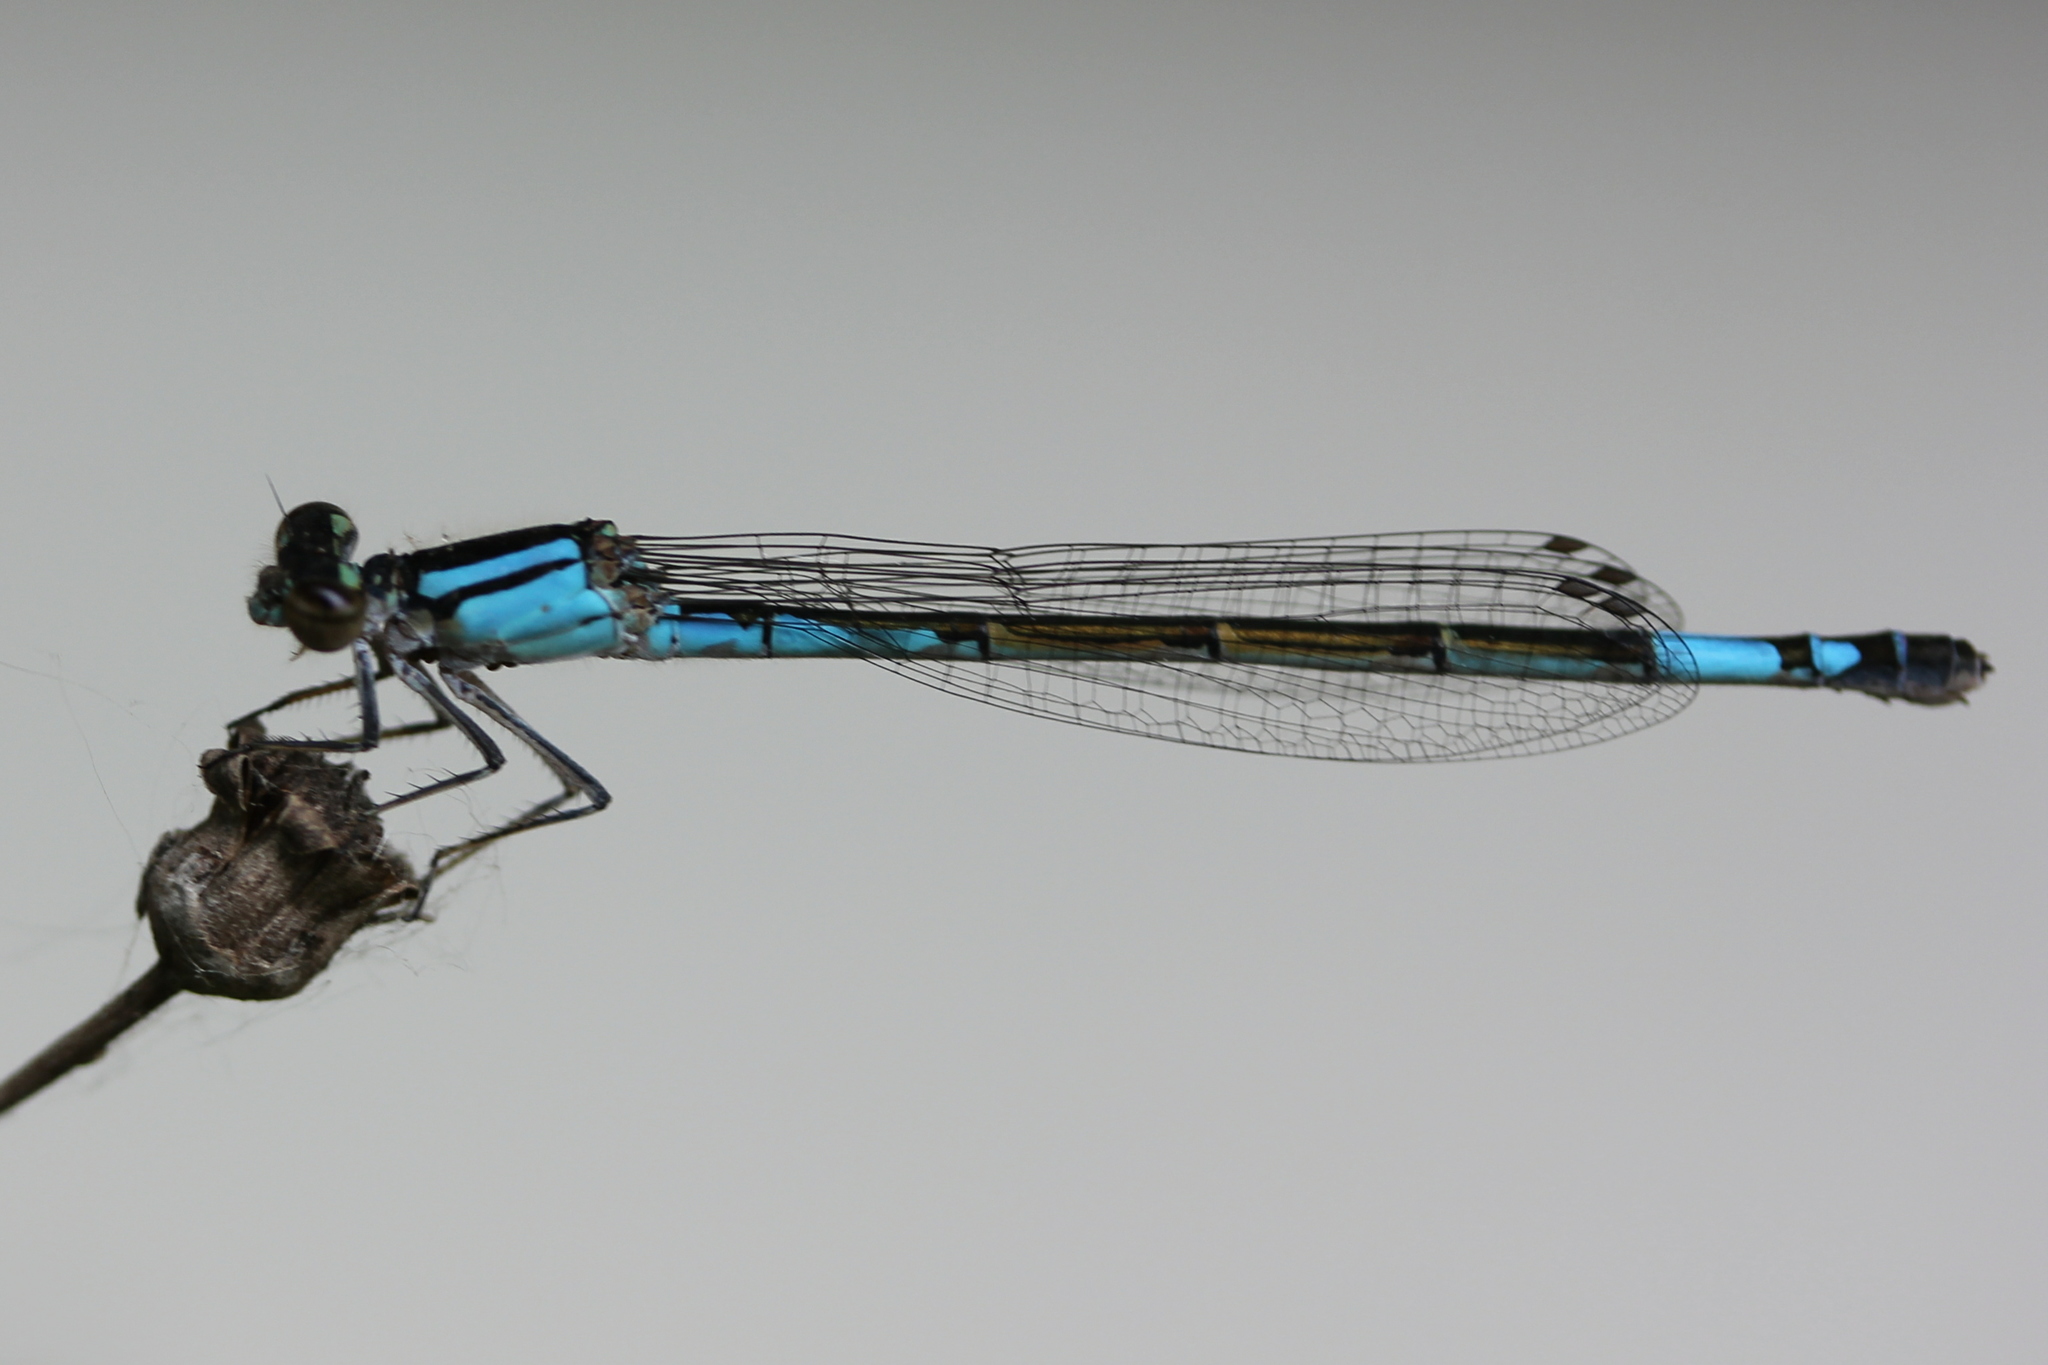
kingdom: Animalia
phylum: Arthropoda
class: Insecta
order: Odonata
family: Coenagrionidae
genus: Enallagma
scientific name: Enallagma aspersum
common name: Azure bluet
